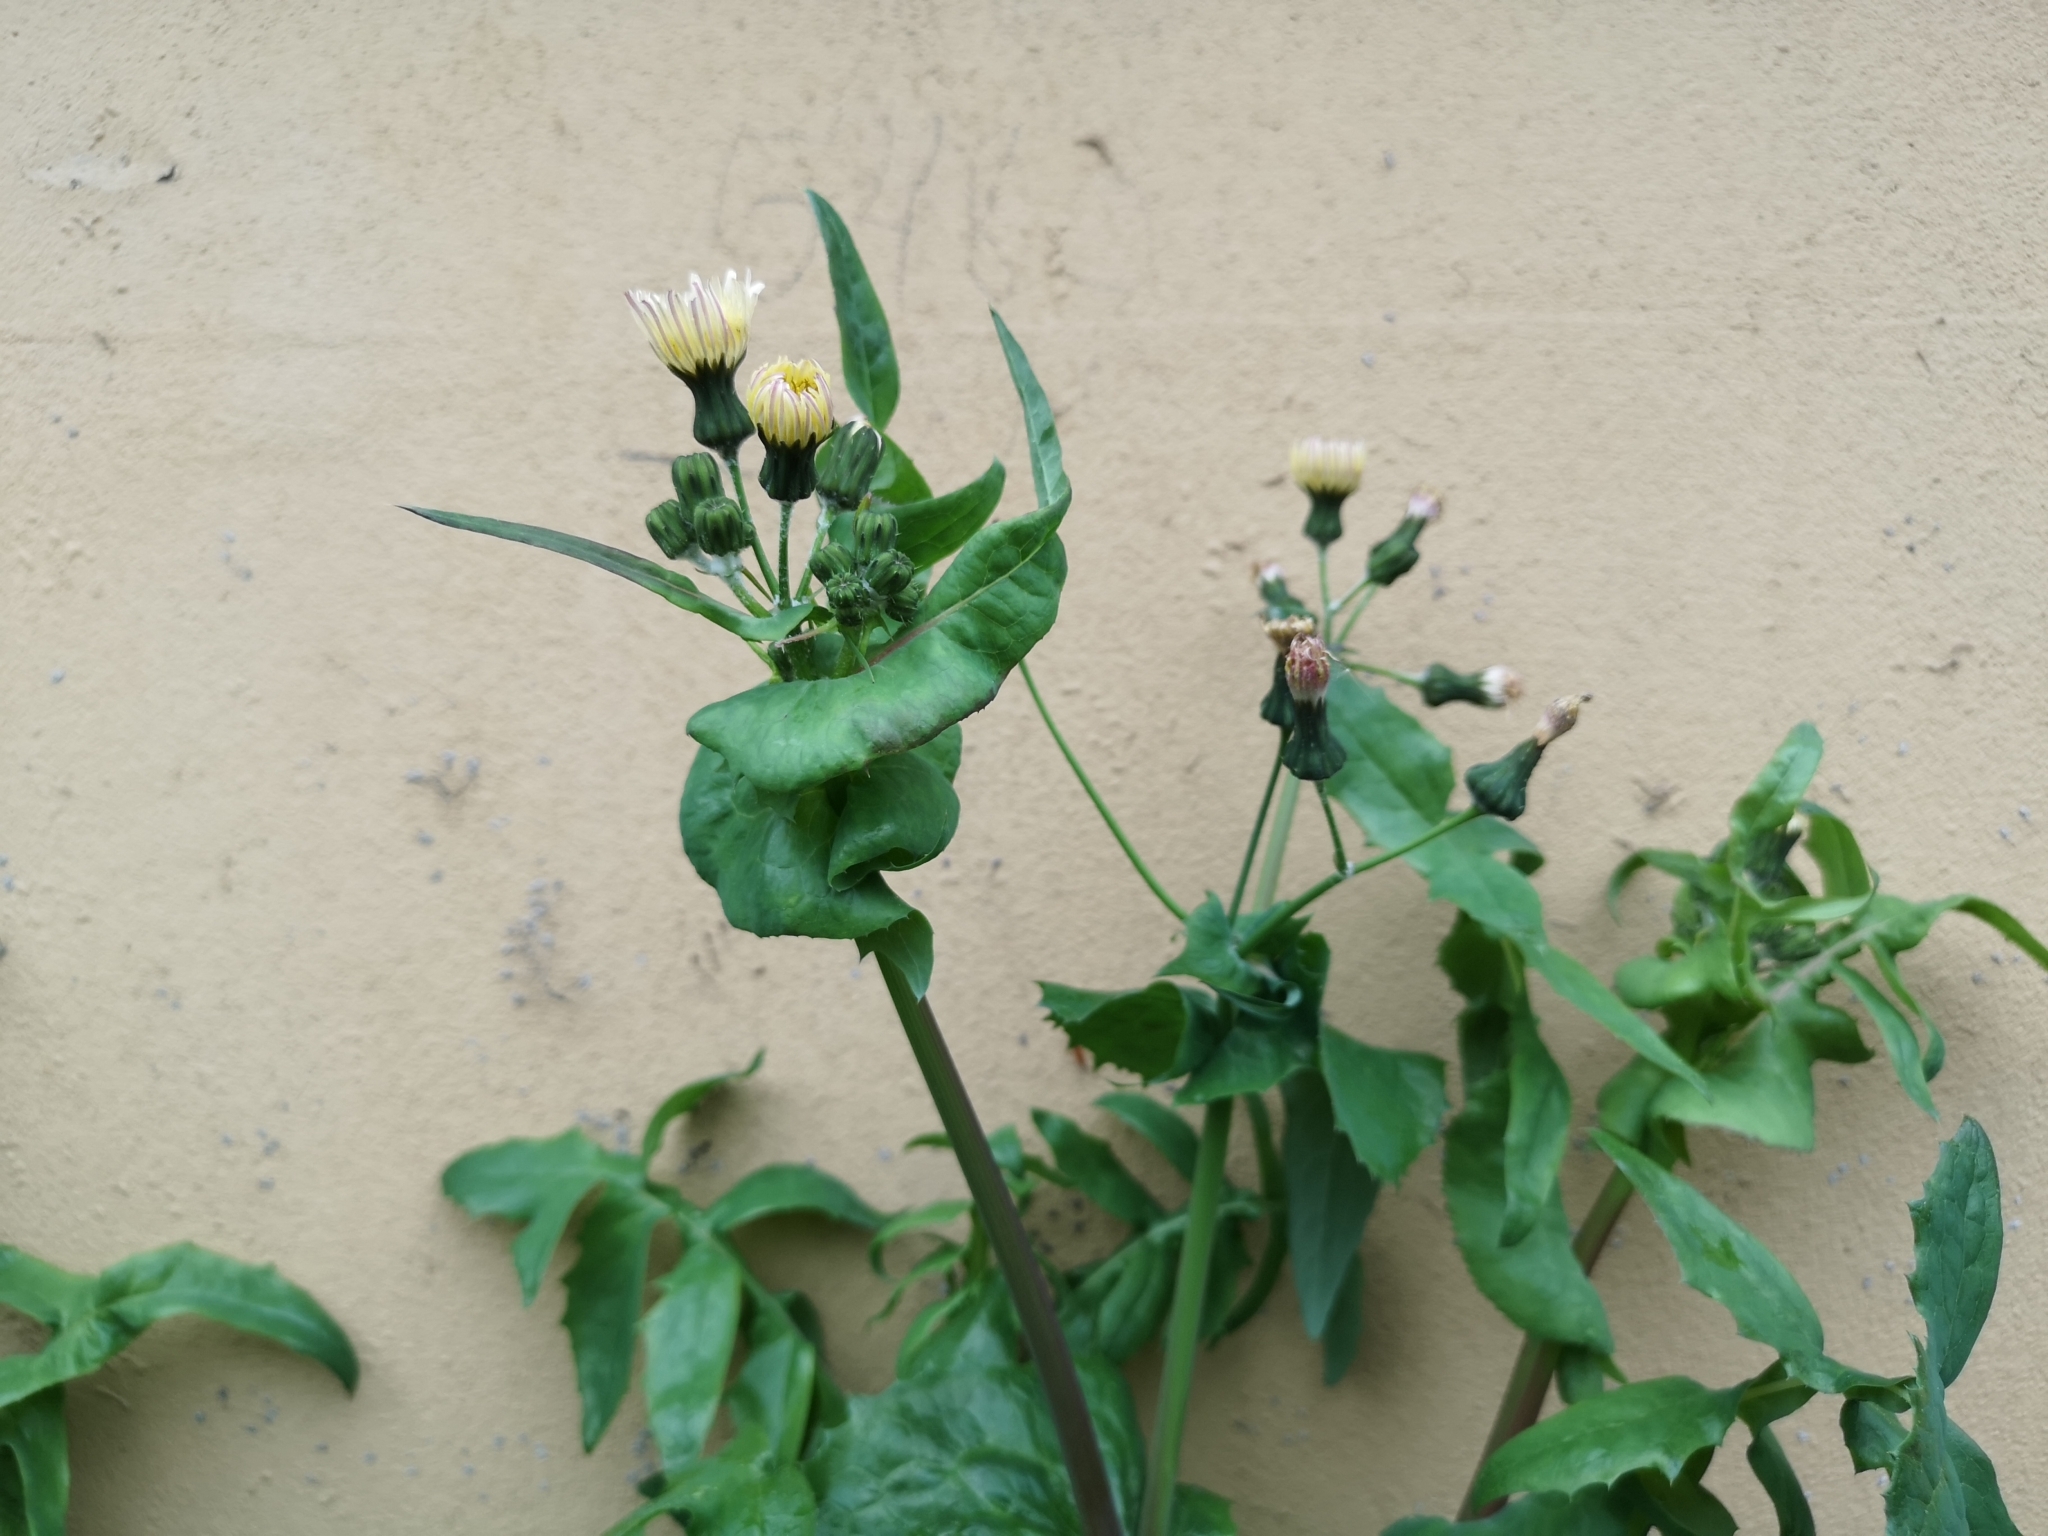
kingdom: Plantae
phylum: Tracheophyta
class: Magnoliopsida
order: Asterales
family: Asteraceae
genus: Sonchus
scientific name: Sonchus oleraceus
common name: Common sowthistle
